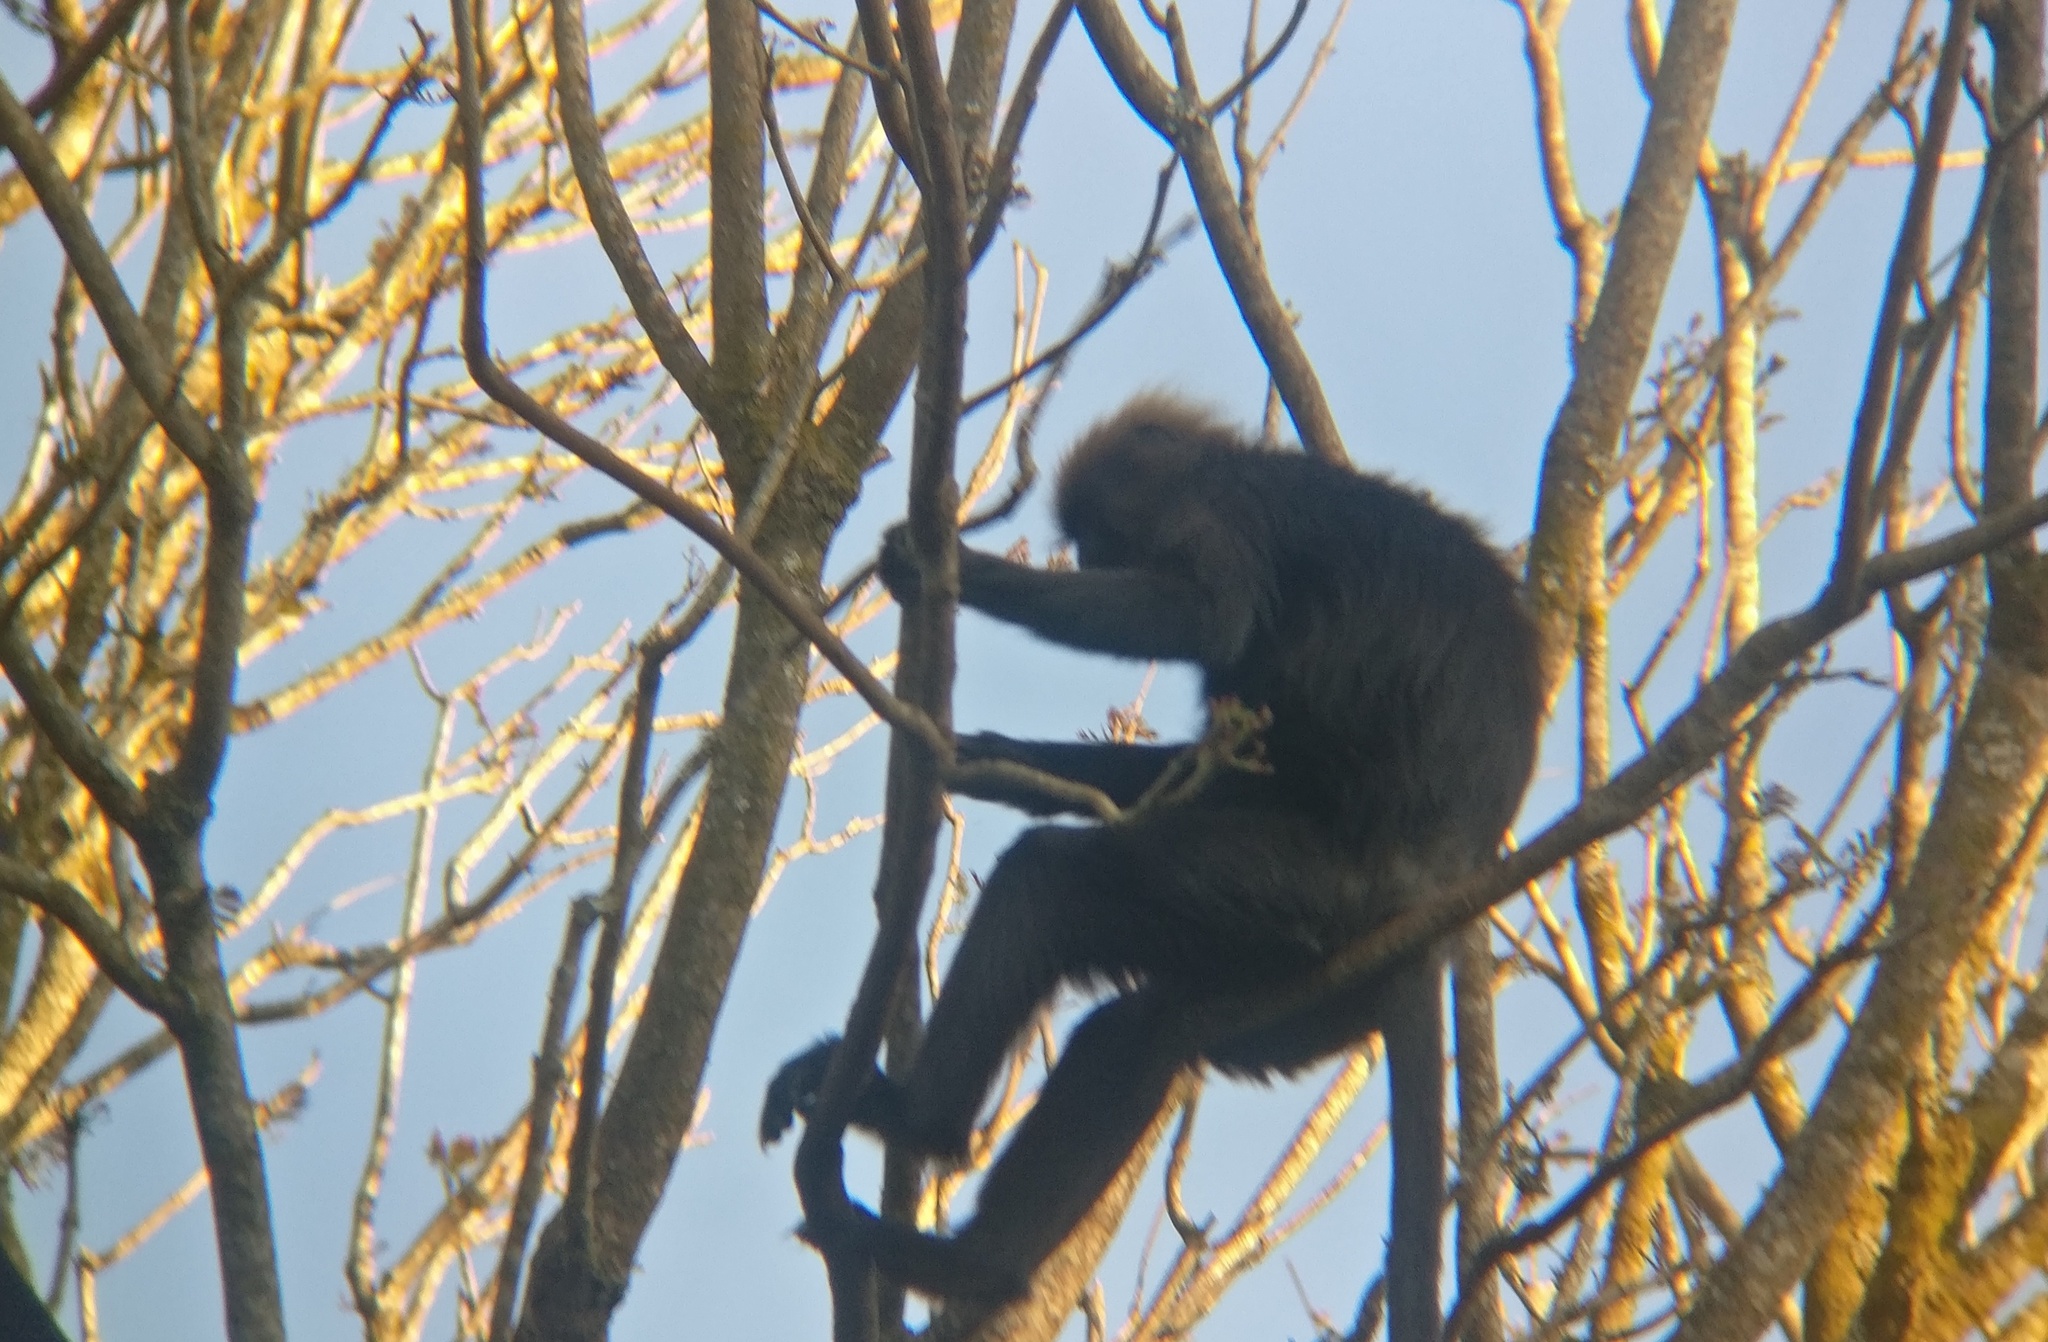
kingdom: Animalia
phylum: Chordata
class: Mammalia
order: Primates
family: Cercopithecidae
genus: Semnopithecus
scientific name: Semnopithecus johnii
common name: Nilgiri langur
